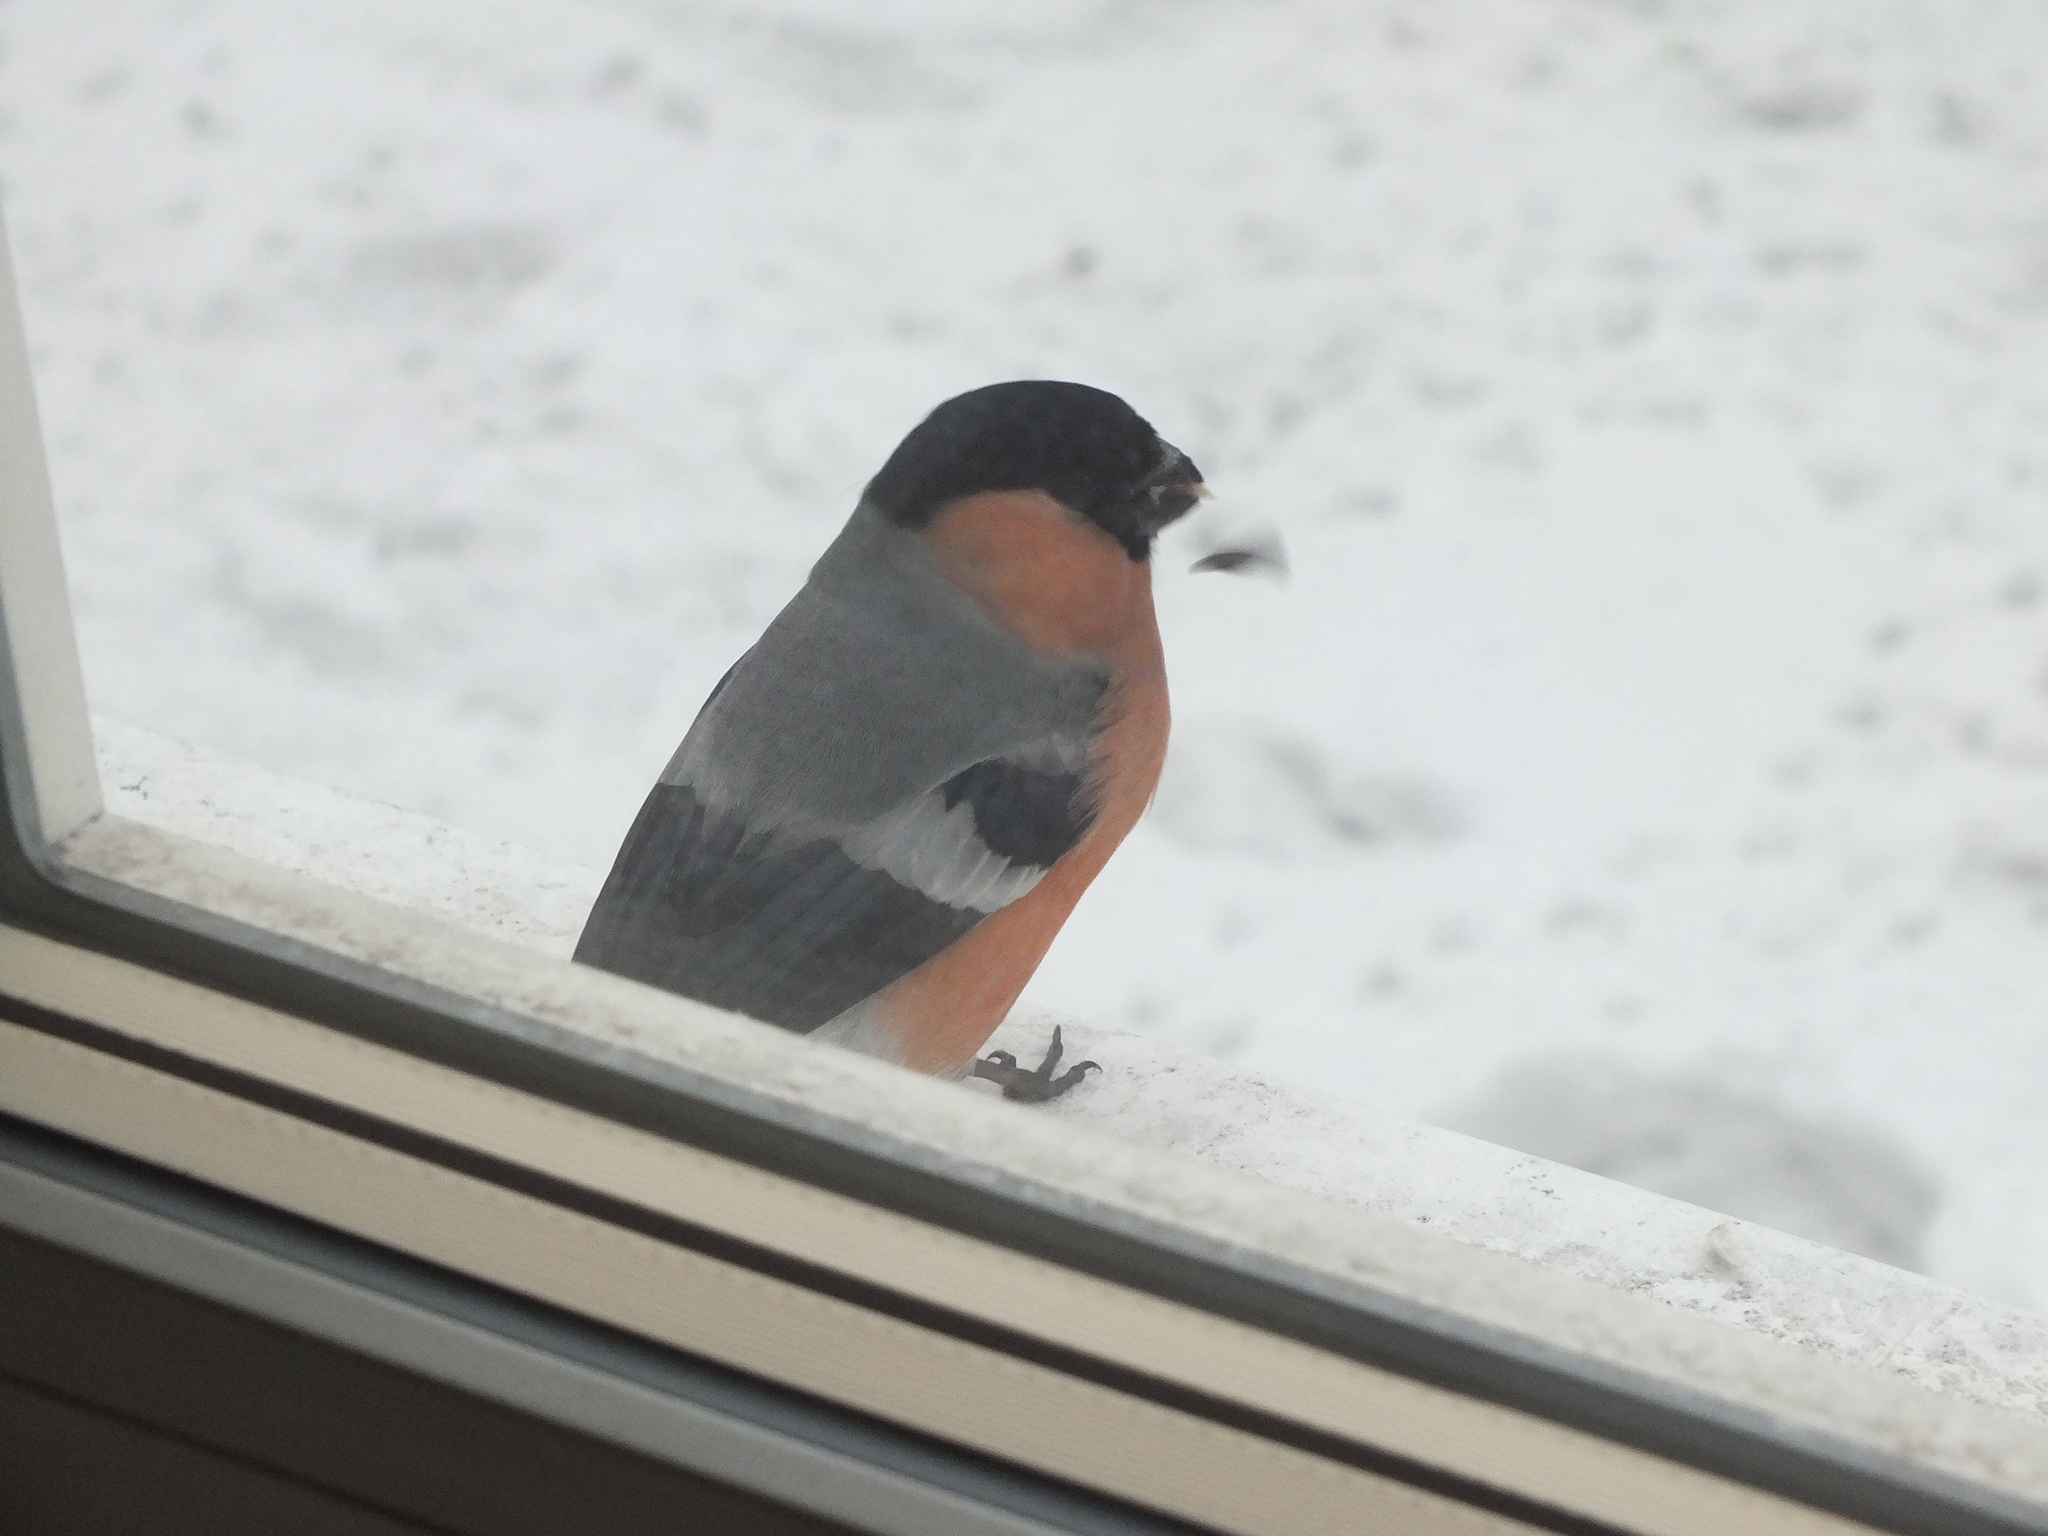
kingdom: Animalia
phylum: Chordata
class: Aves
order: Passeriformes
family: Fringillidae
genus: Pyrrhula
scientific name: Pyrrhula pyrrhula
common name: Eurasian bullfinch
